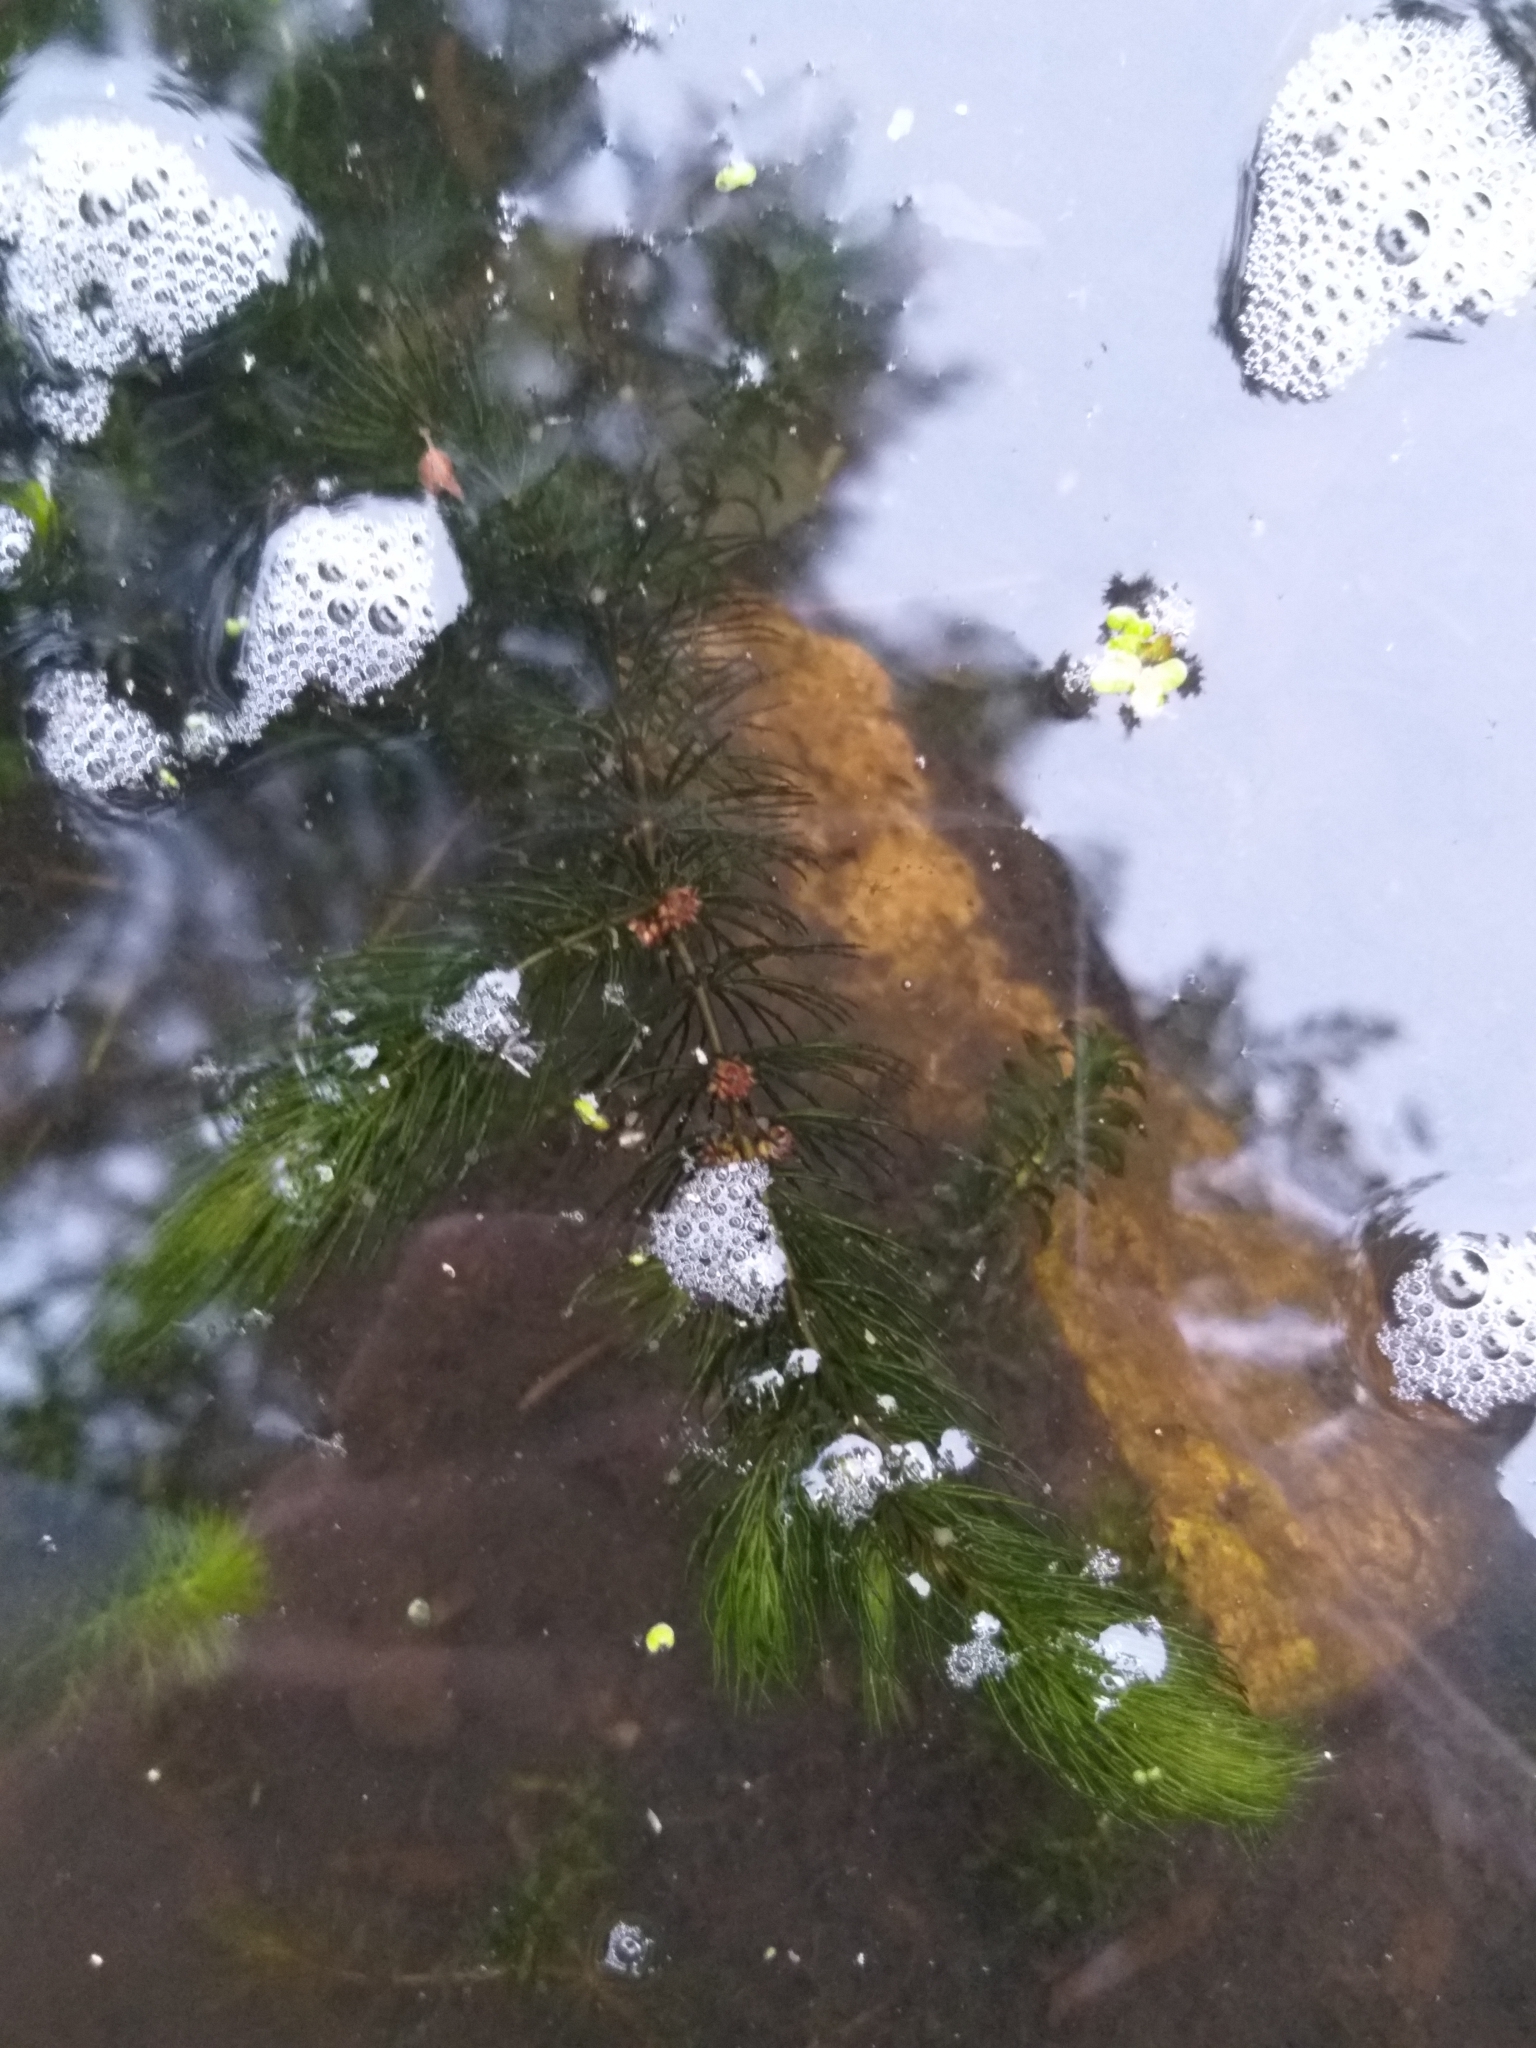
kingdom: Plantae
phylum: Tracheophyta
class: Magnoliopsida
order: Ceratophyllales
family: Ceratophyllaceae
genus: Ceratophyllum
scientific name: Ceratophyllum demersum
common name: Rigid hornwort
